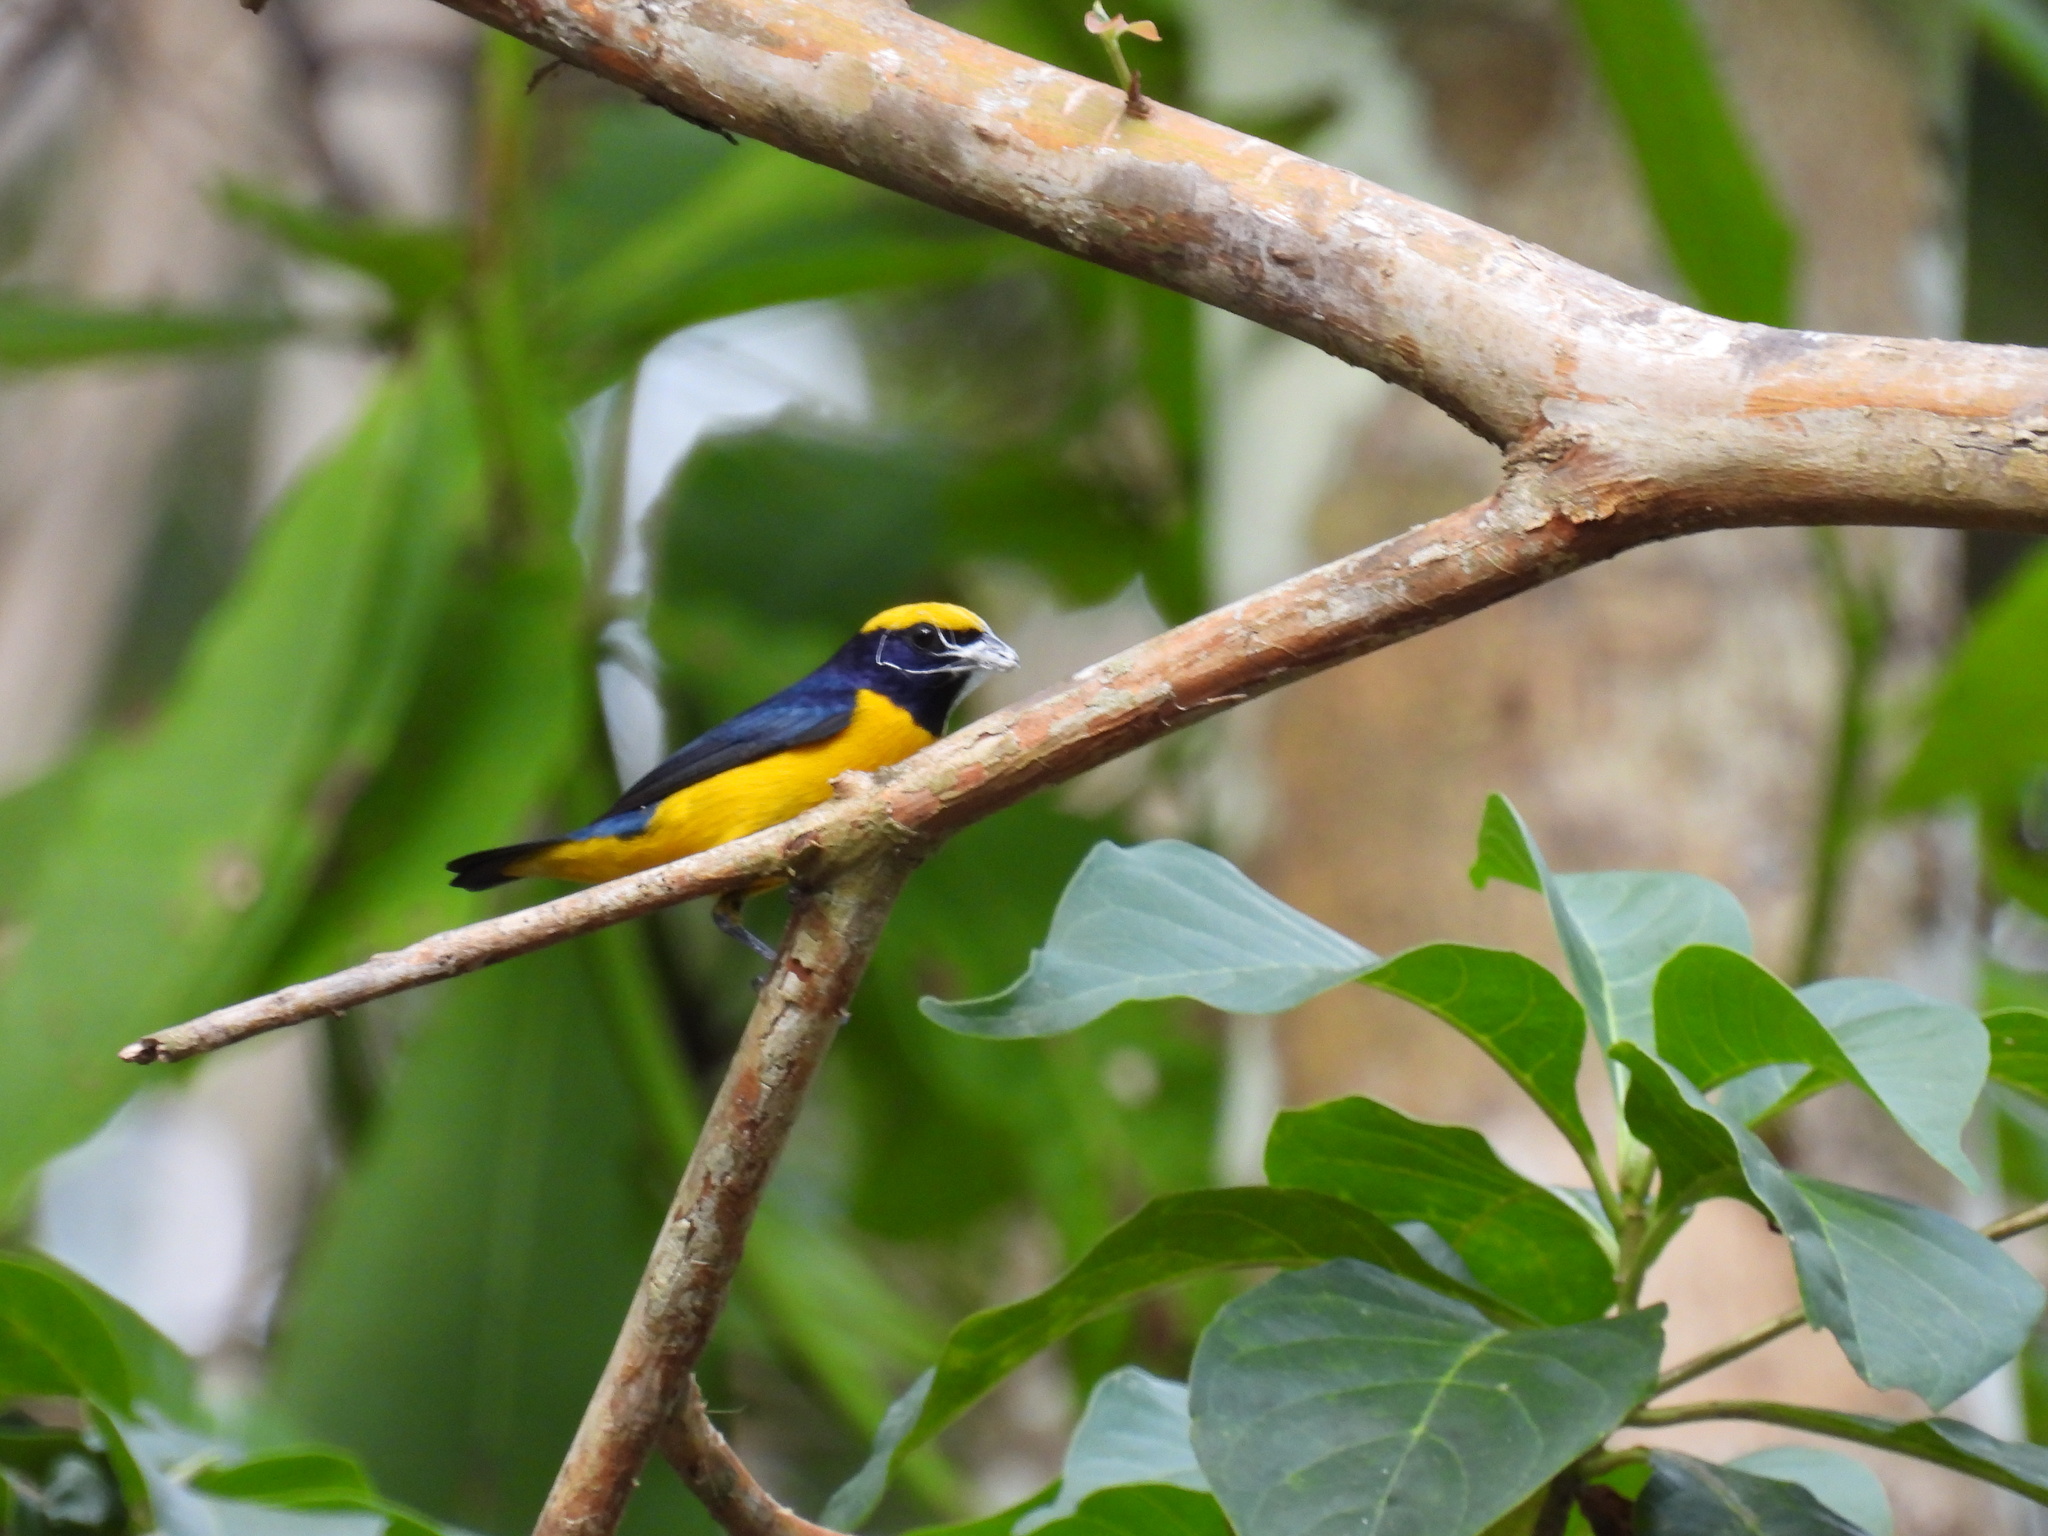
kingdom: Animalia
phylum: Chordata
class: Aves
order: Passeriformes
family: Fringillidae
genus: Euphonia
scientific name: Euphonia luteicapilla
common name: Yellow-crowned euphonia
